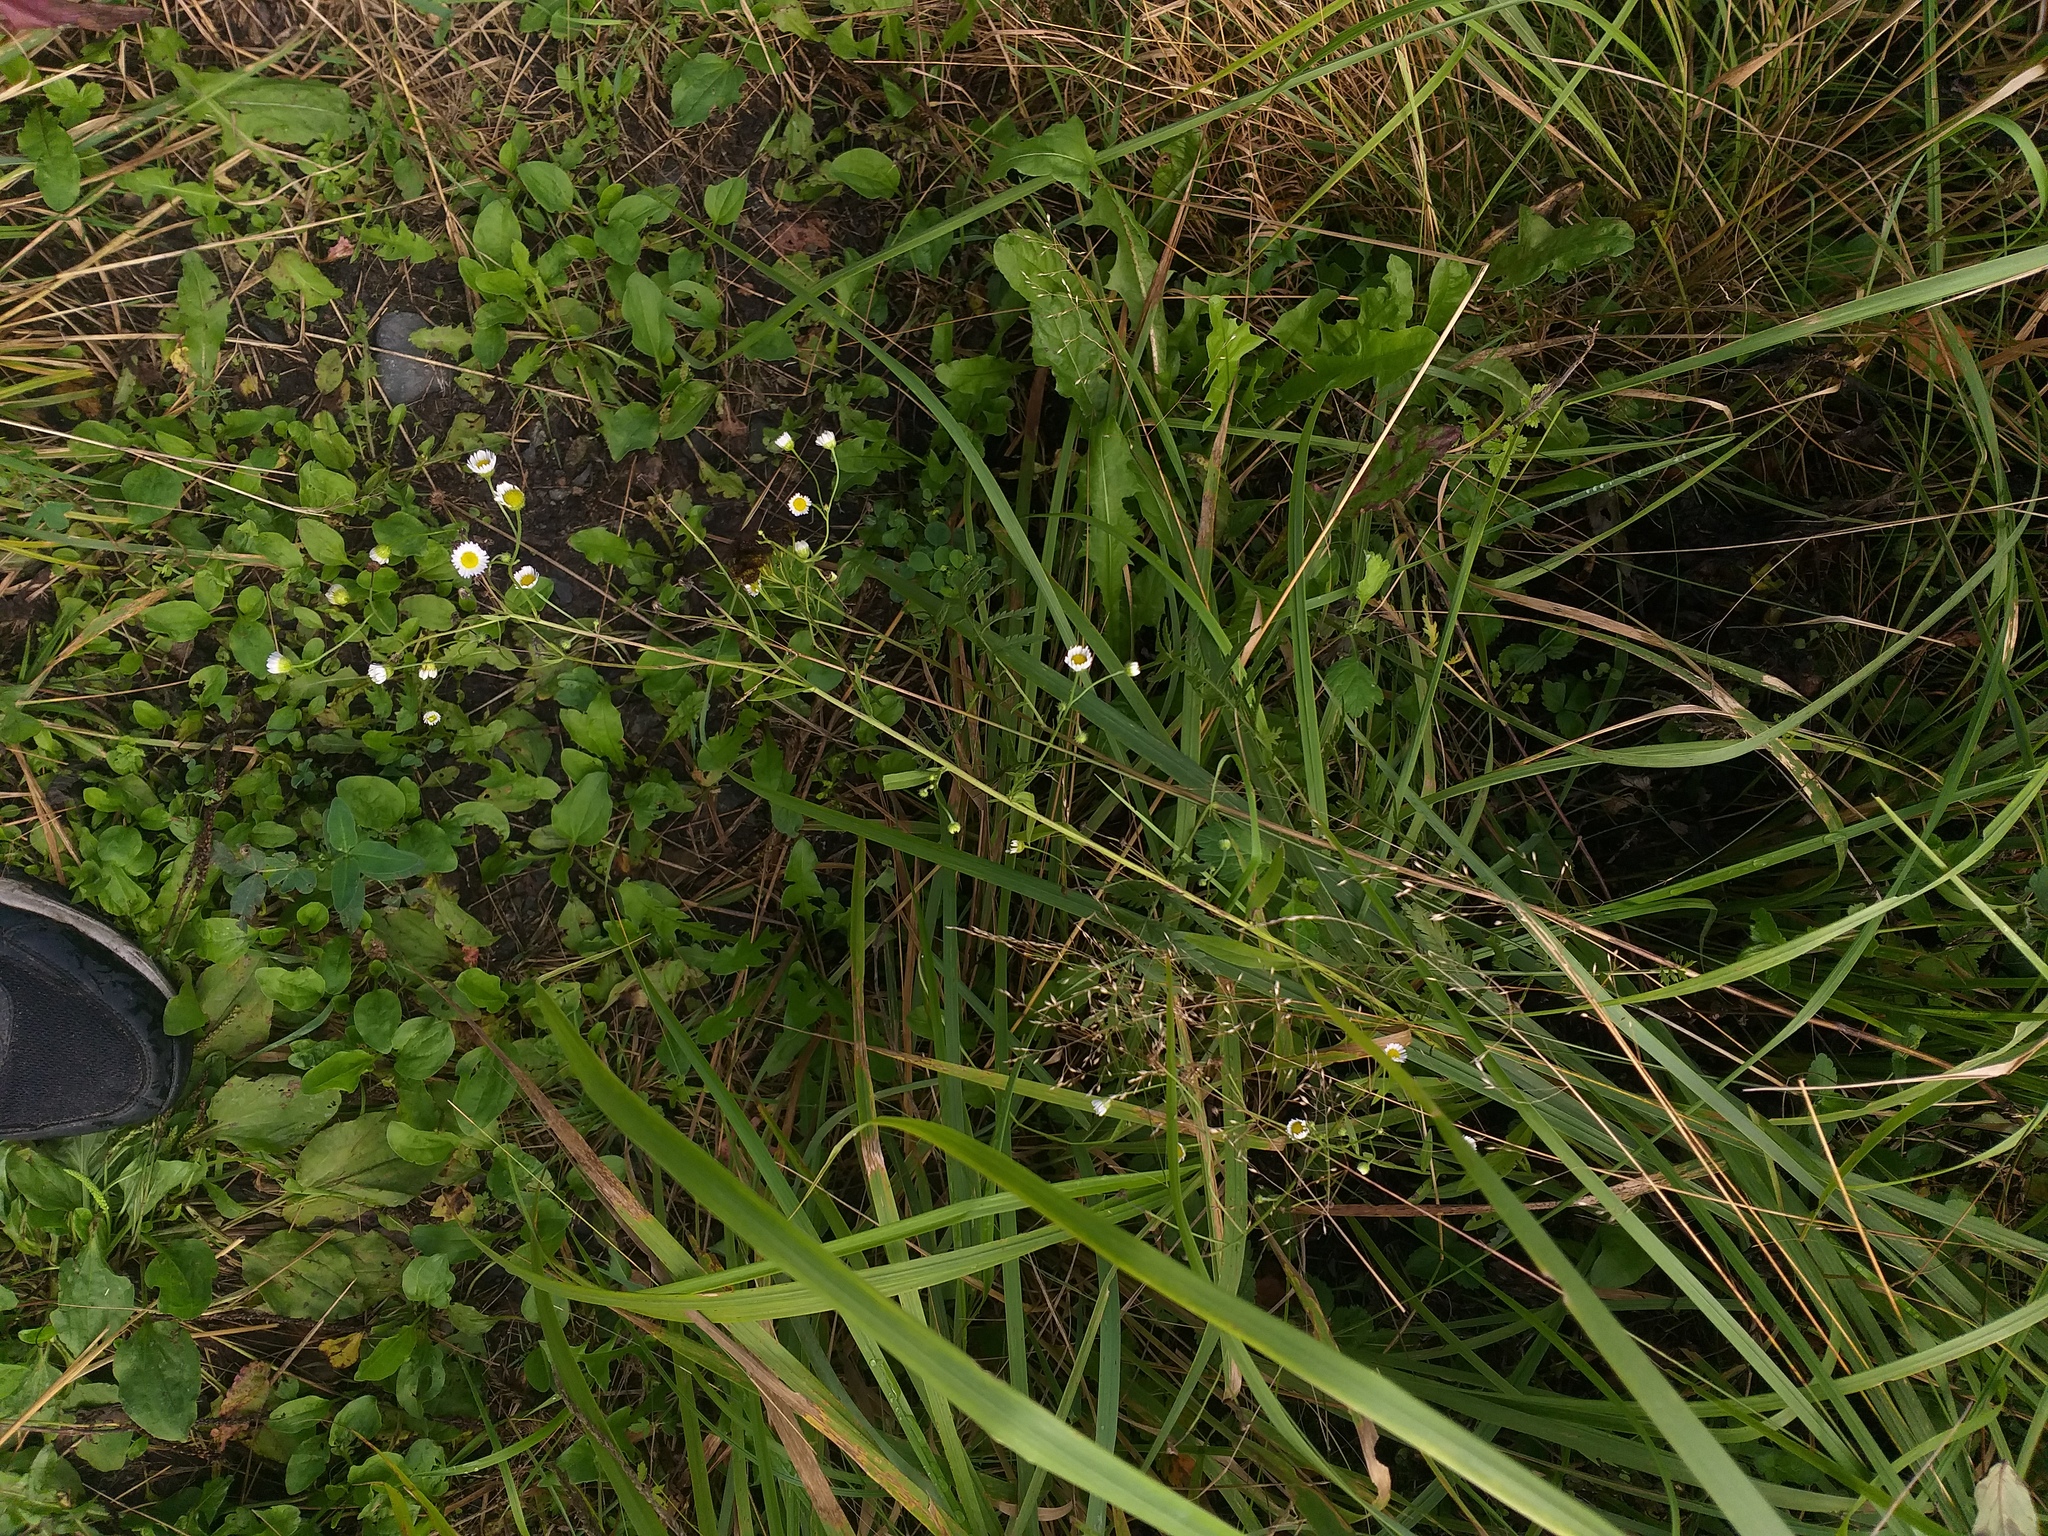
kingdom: Plantae
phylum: Tracheophyta
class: Magnoliopsida
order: Asterales
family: Asteraceae
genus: Erigeron
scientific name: Erigeron annuus
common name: Tall fleabane
